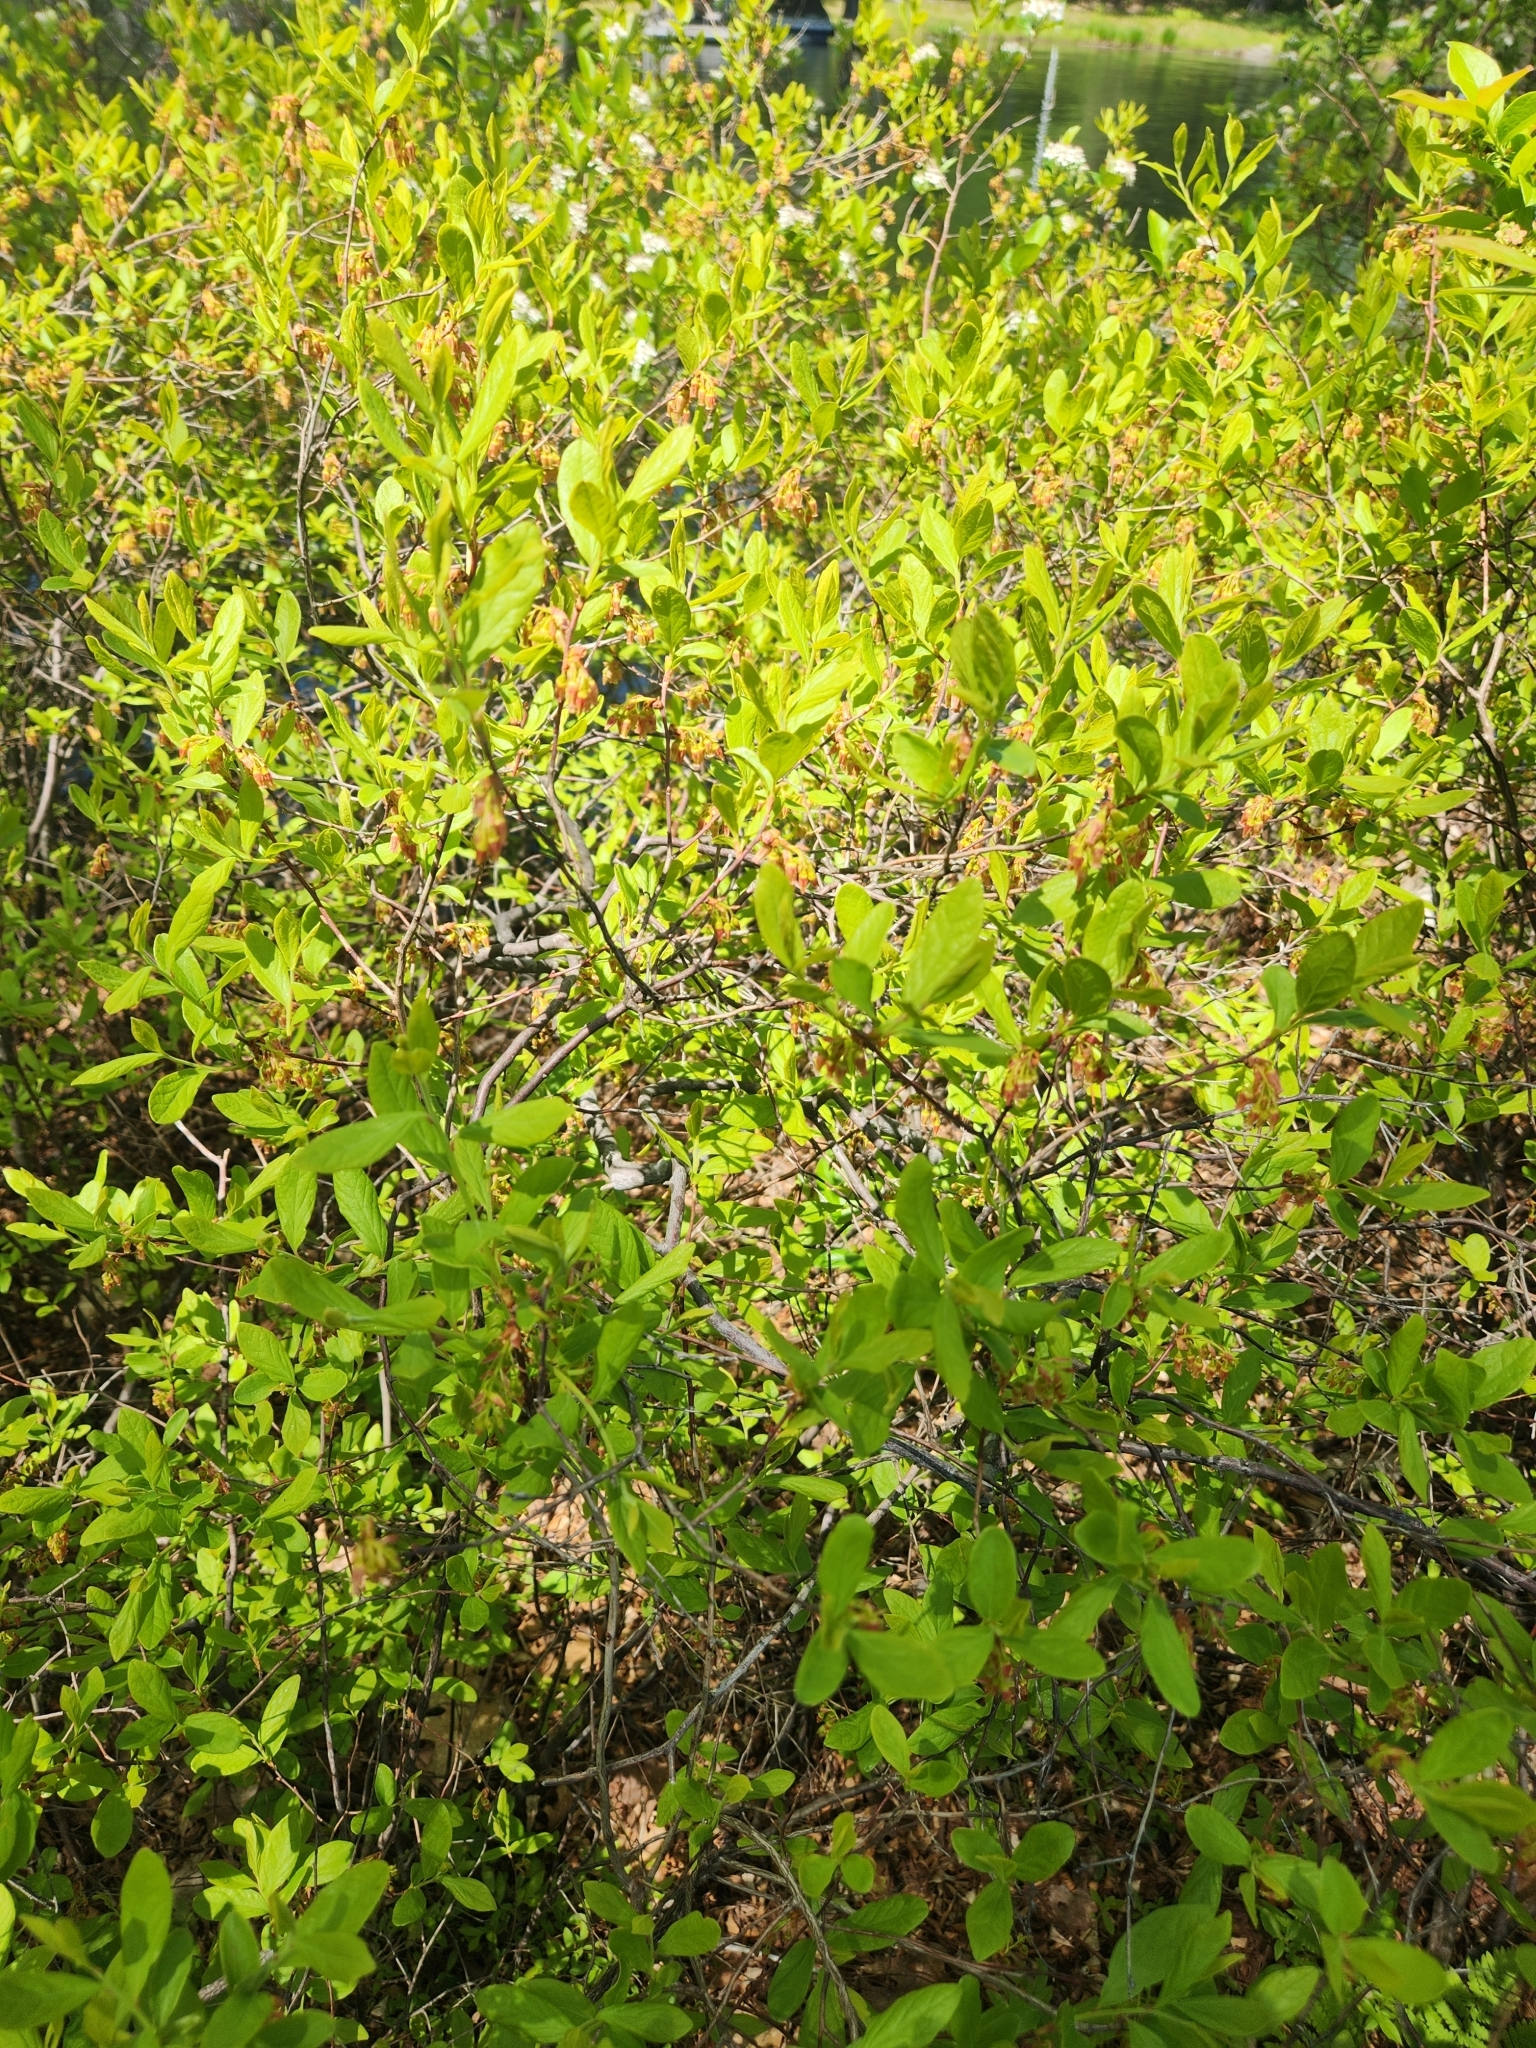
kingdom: Plantae
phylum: Tracheophyta
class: Magnoliopsida
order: Ericales
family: Ericaceae
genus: Gaylussacia
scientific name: Gaylussacia baccata
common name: Black huckleberry
